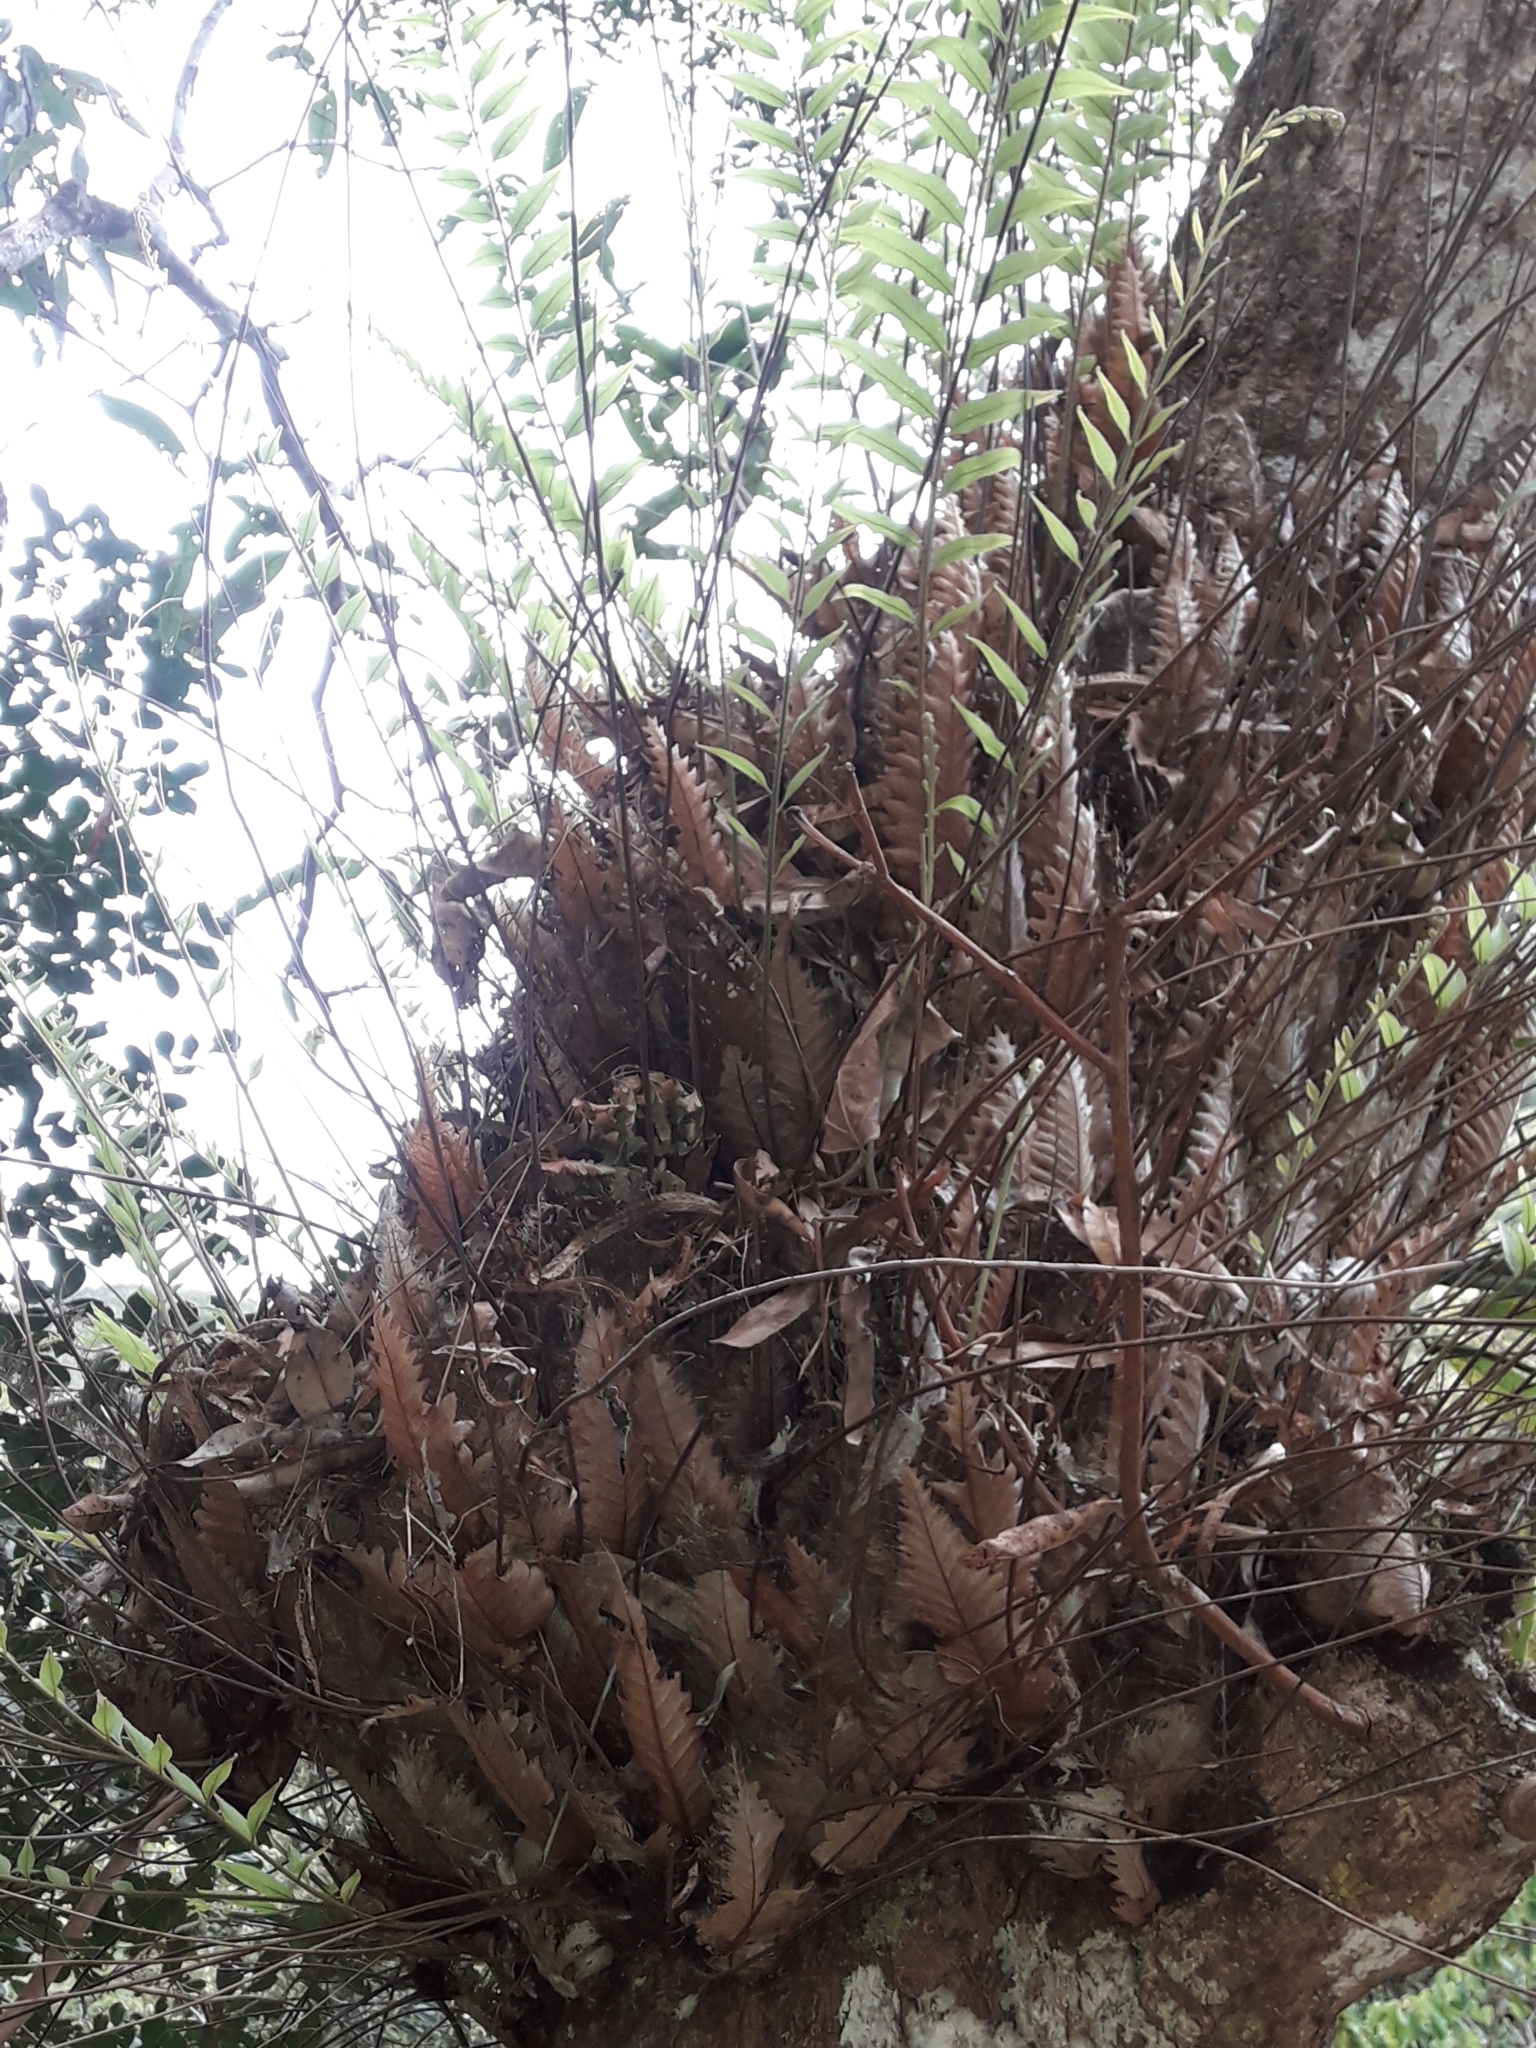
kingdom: Plantae
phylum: Tracheophyta
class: Polypodiopsida
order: Polypodiales
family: Polypodiaceae
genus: Drynaria
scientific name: Drynaria rigidula
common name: Basket fern
